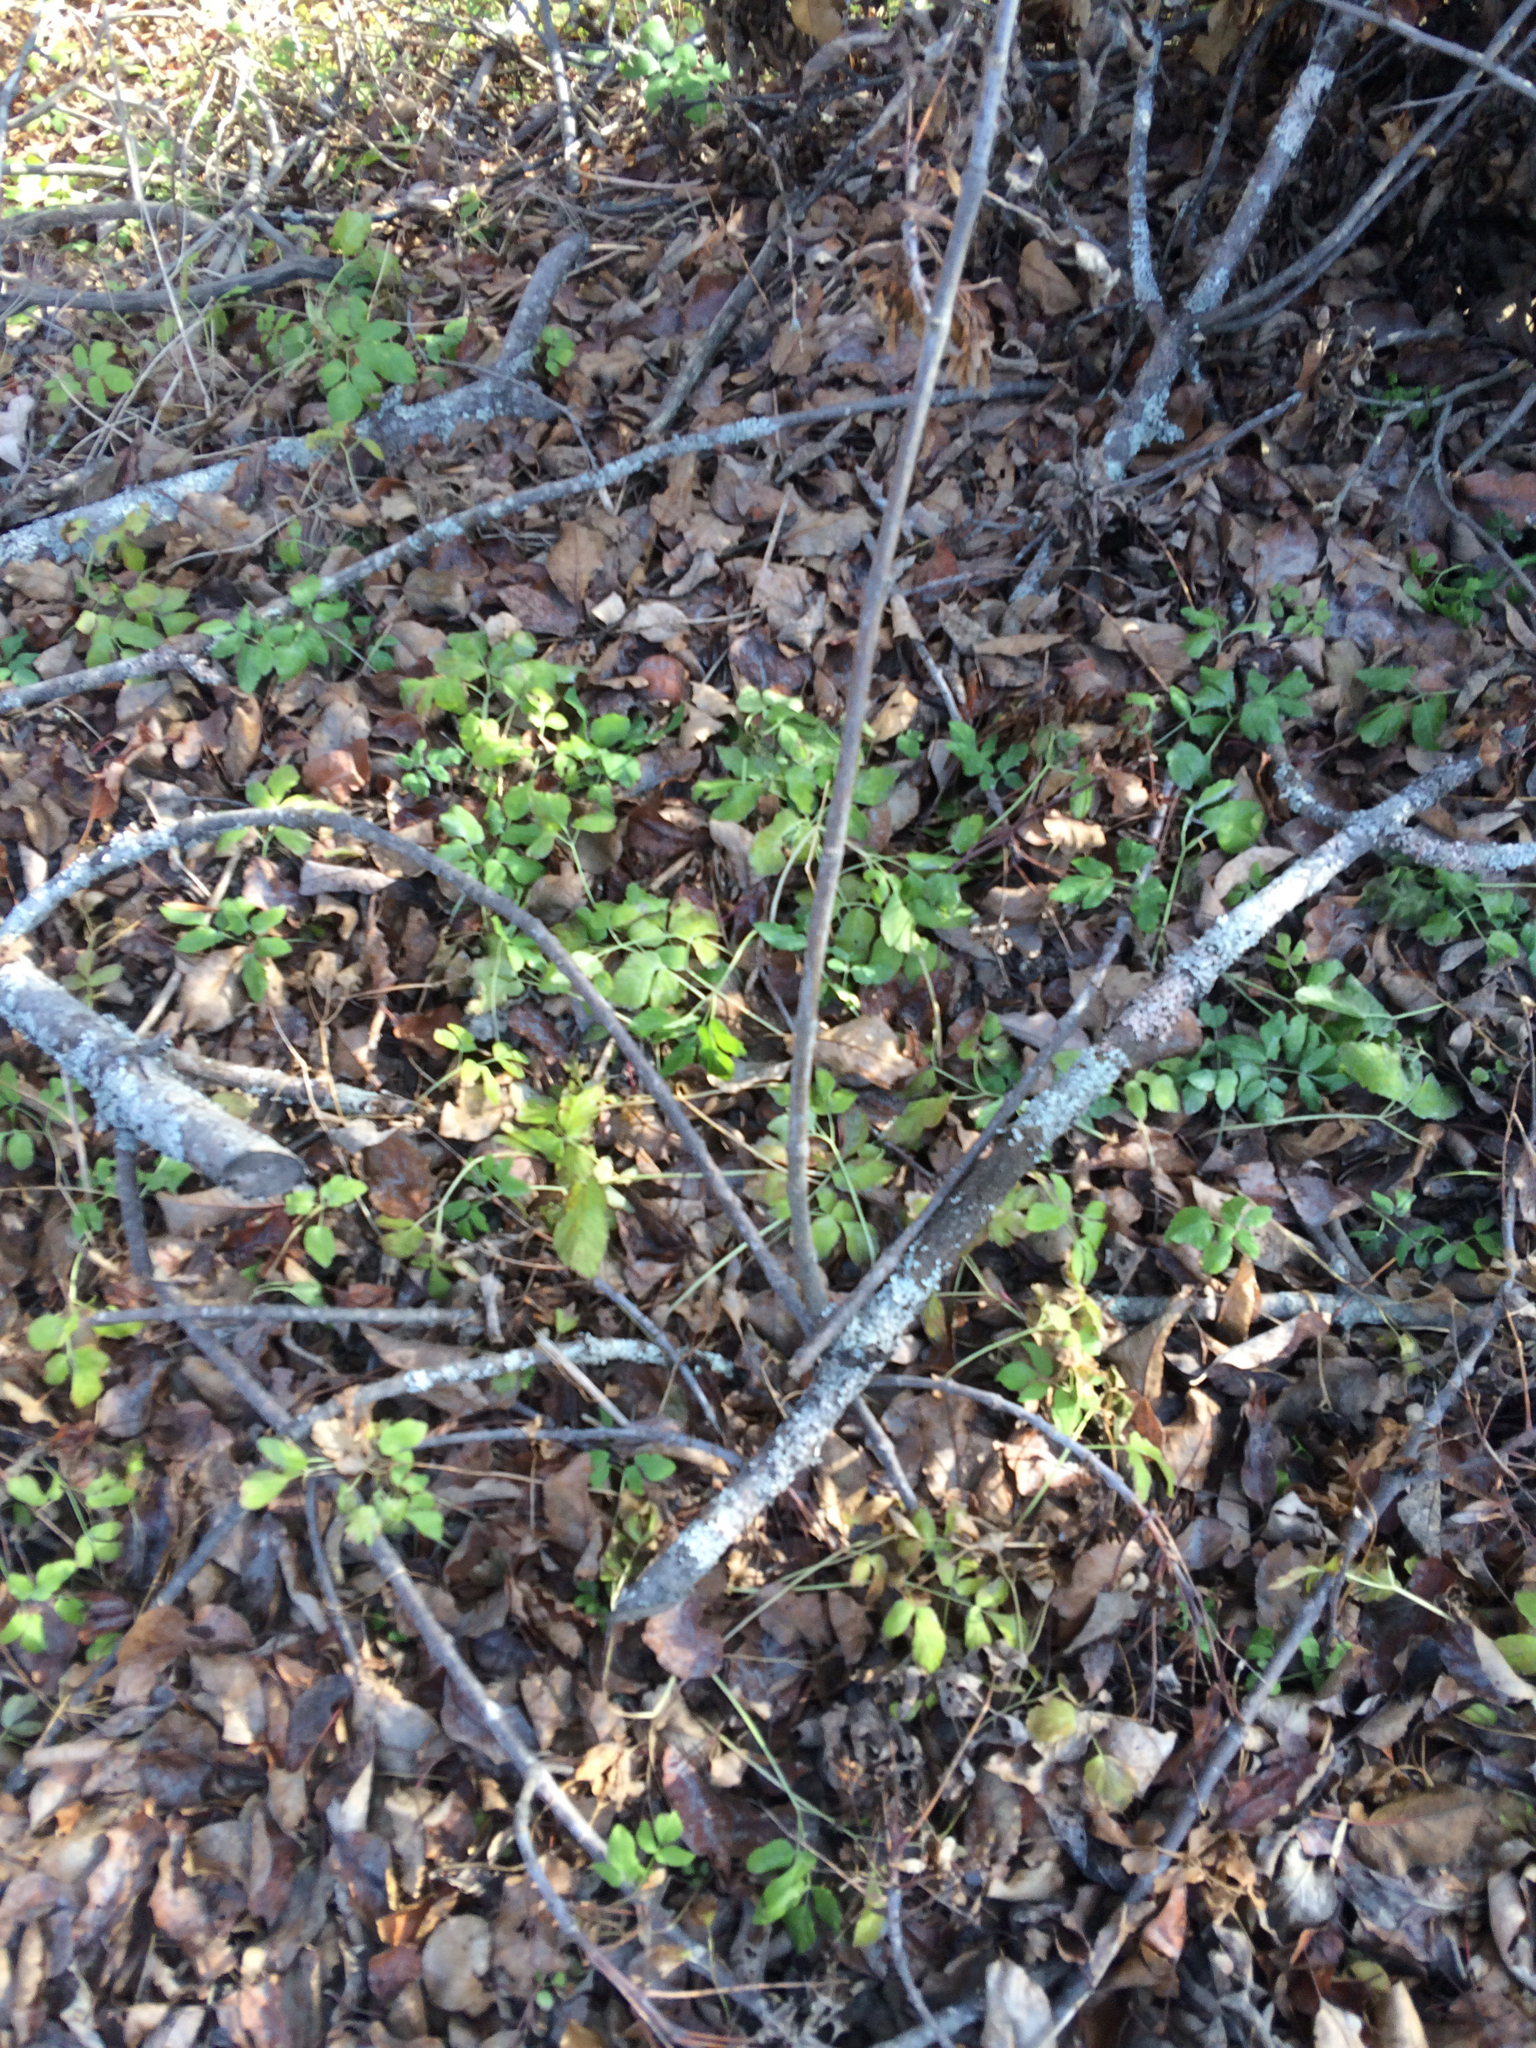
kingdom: Plantae
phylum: Tracheophyta
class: Magnoliopsida
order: Apiales
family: Apiaceae
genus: Aegopodium
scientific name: Aegopodium podagraria
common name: Ground-elder
